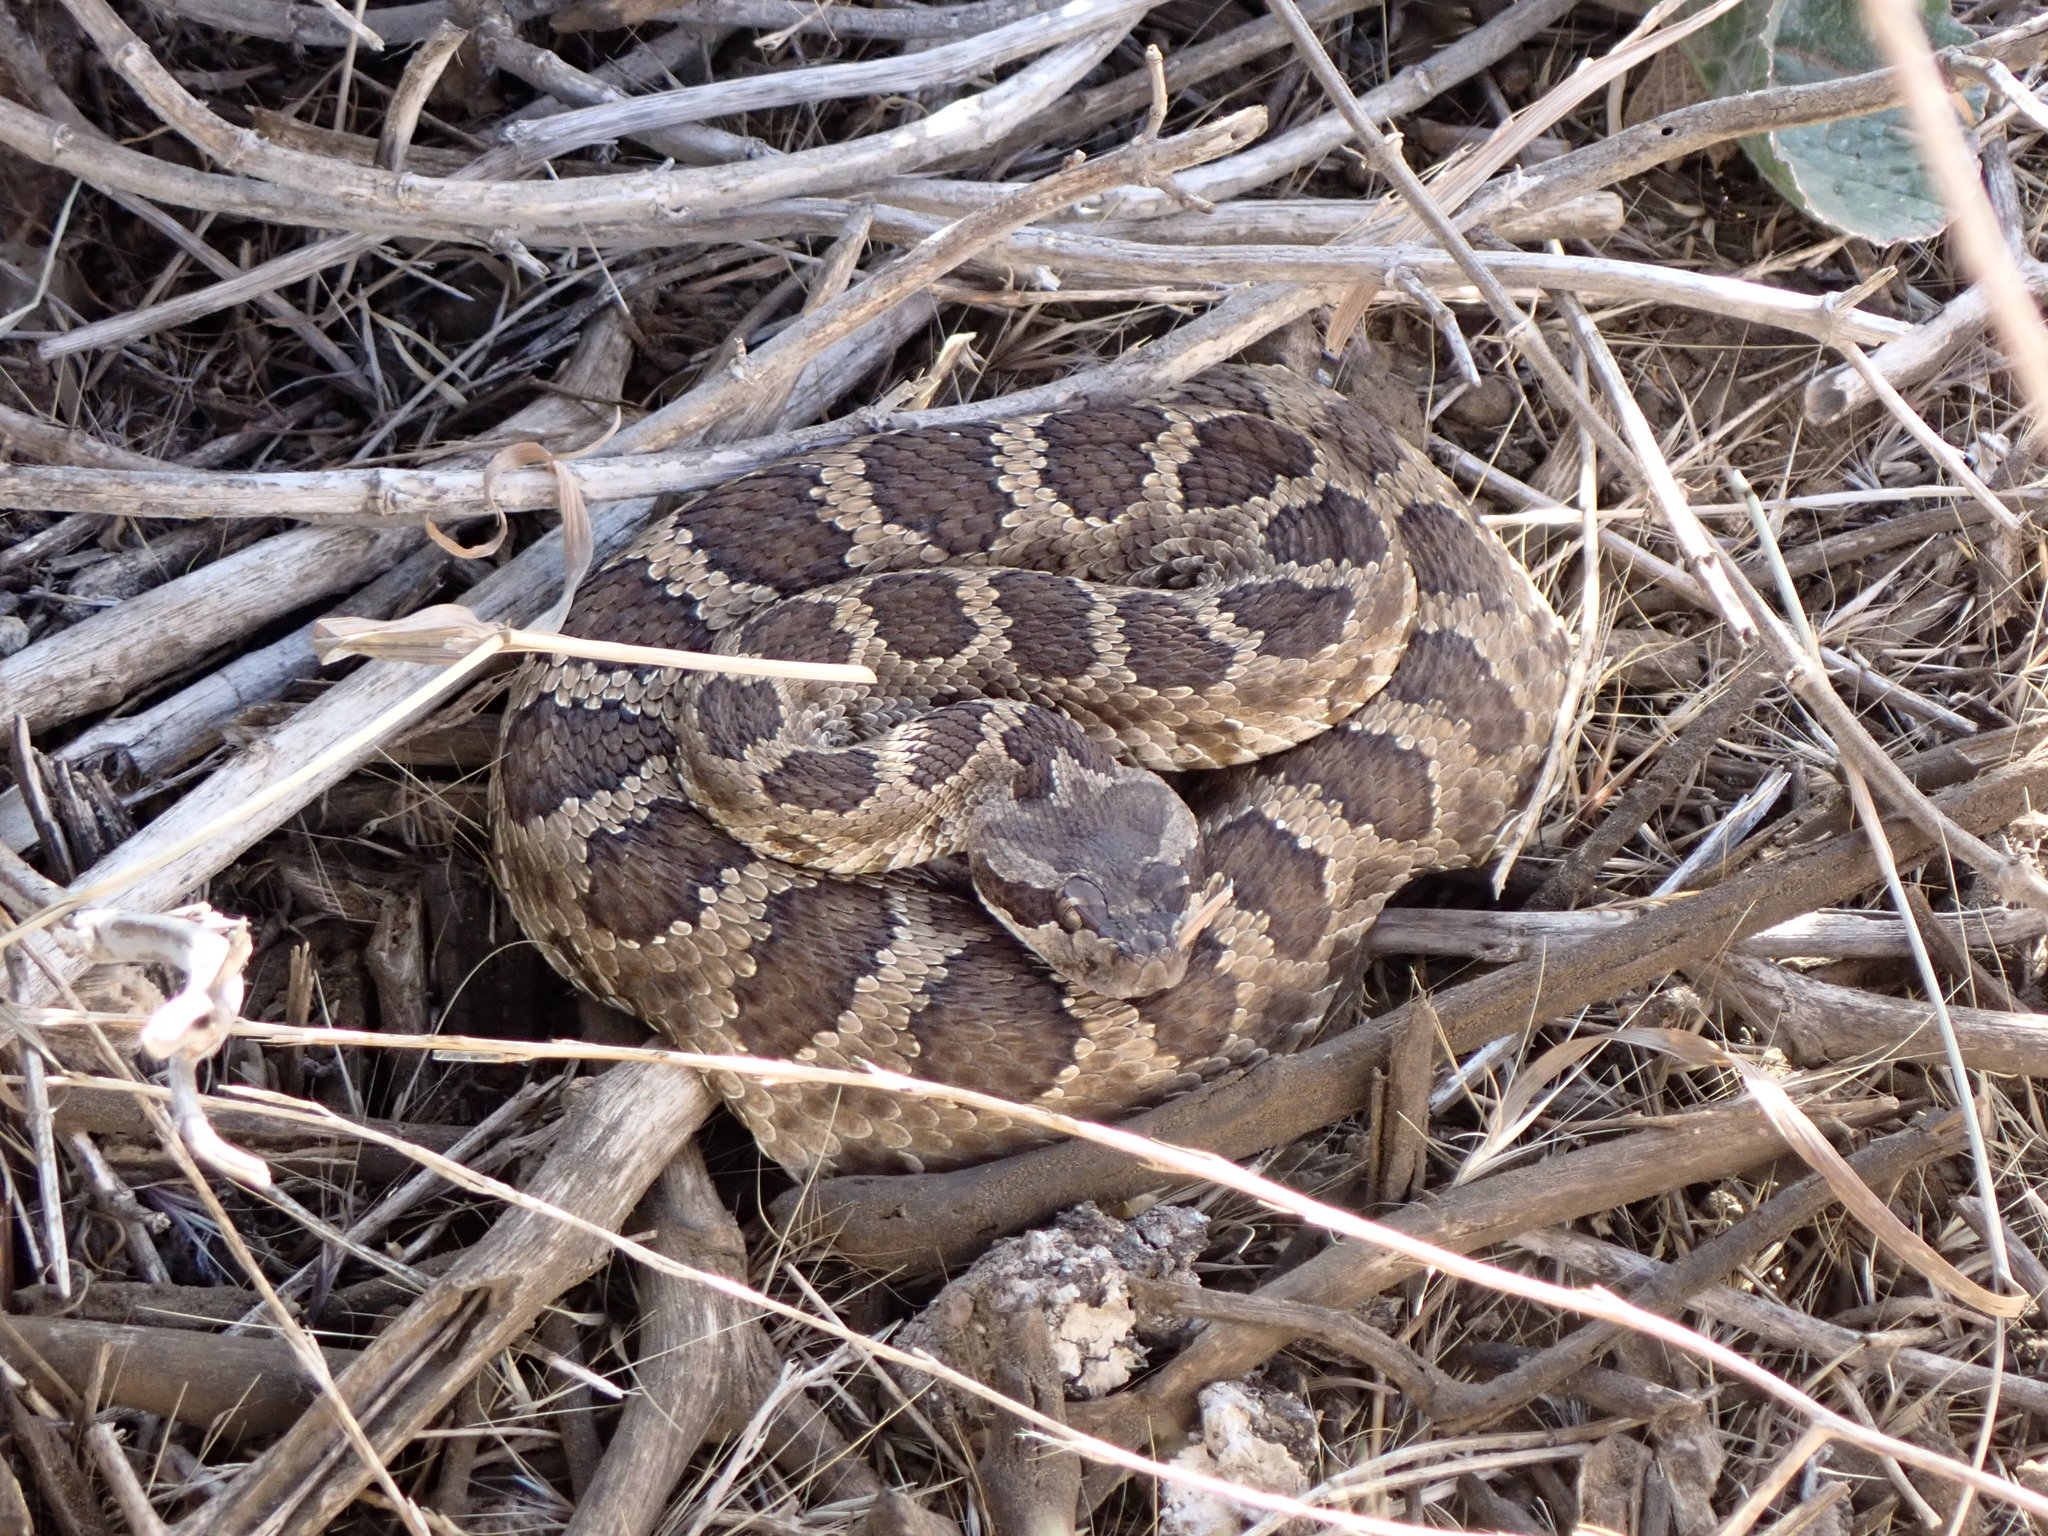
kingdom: Animalia
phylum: Chordata
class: Squamata
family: Viperidae
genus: Crotalus
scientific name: Crotalus oreganus
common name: Abyssus
